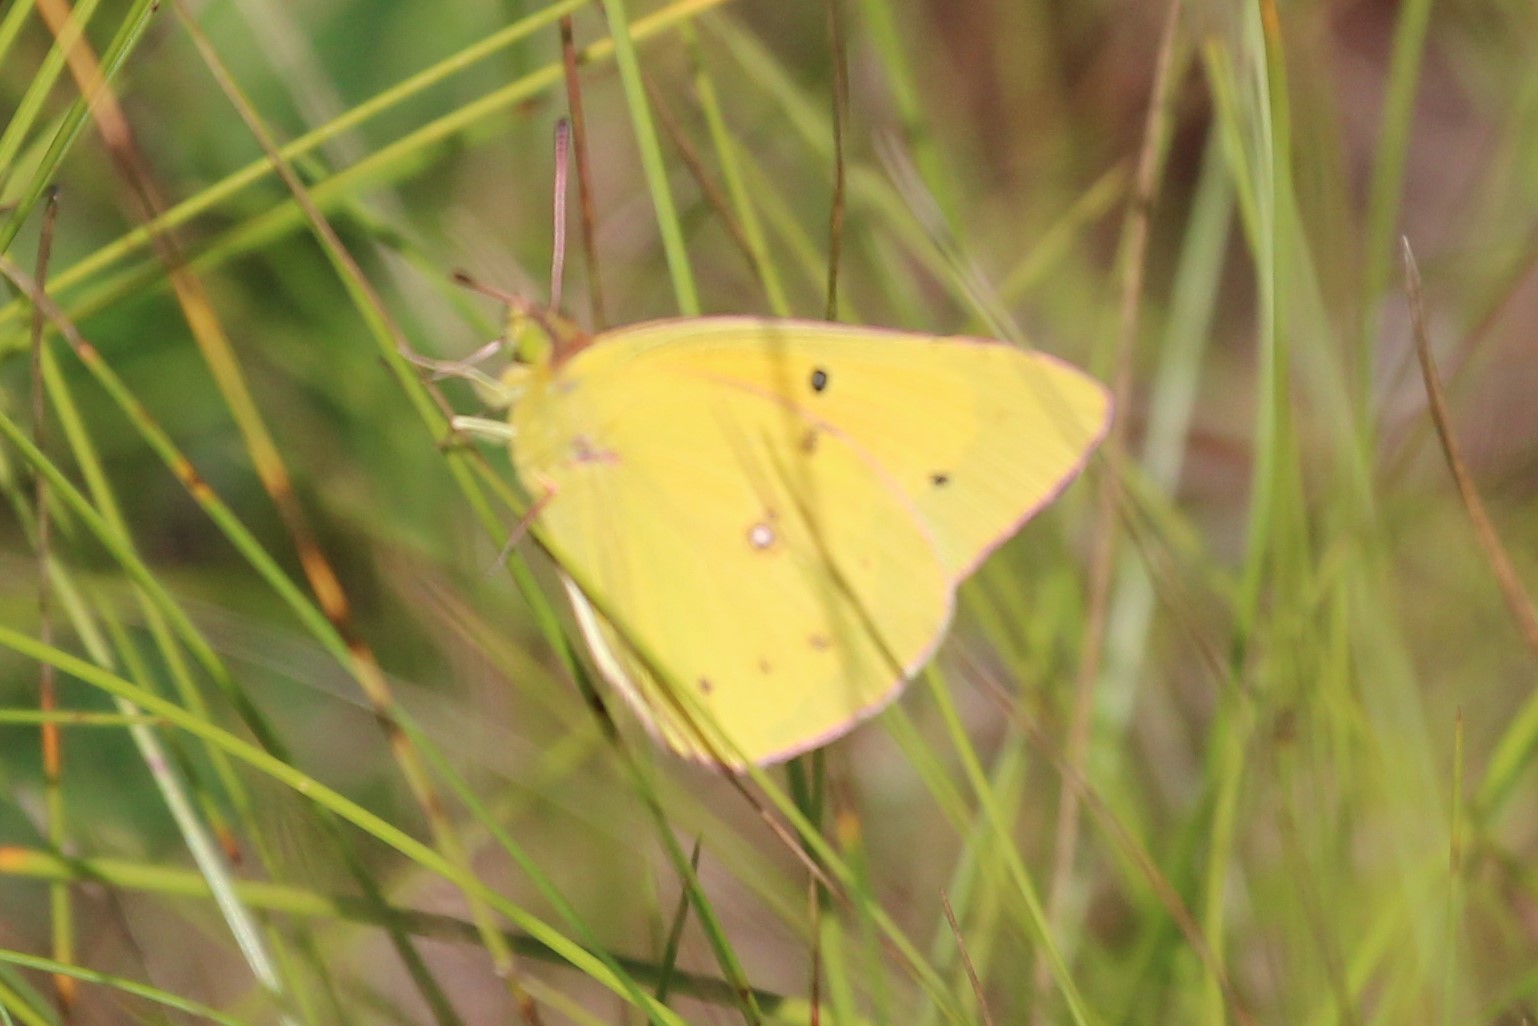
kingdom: Animalia
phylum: Arthropoda
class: Insecta
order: Lepidoptera
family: Pieridae
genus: Colias
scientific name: Colias eurytheme
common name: Alfalfa butterfly
